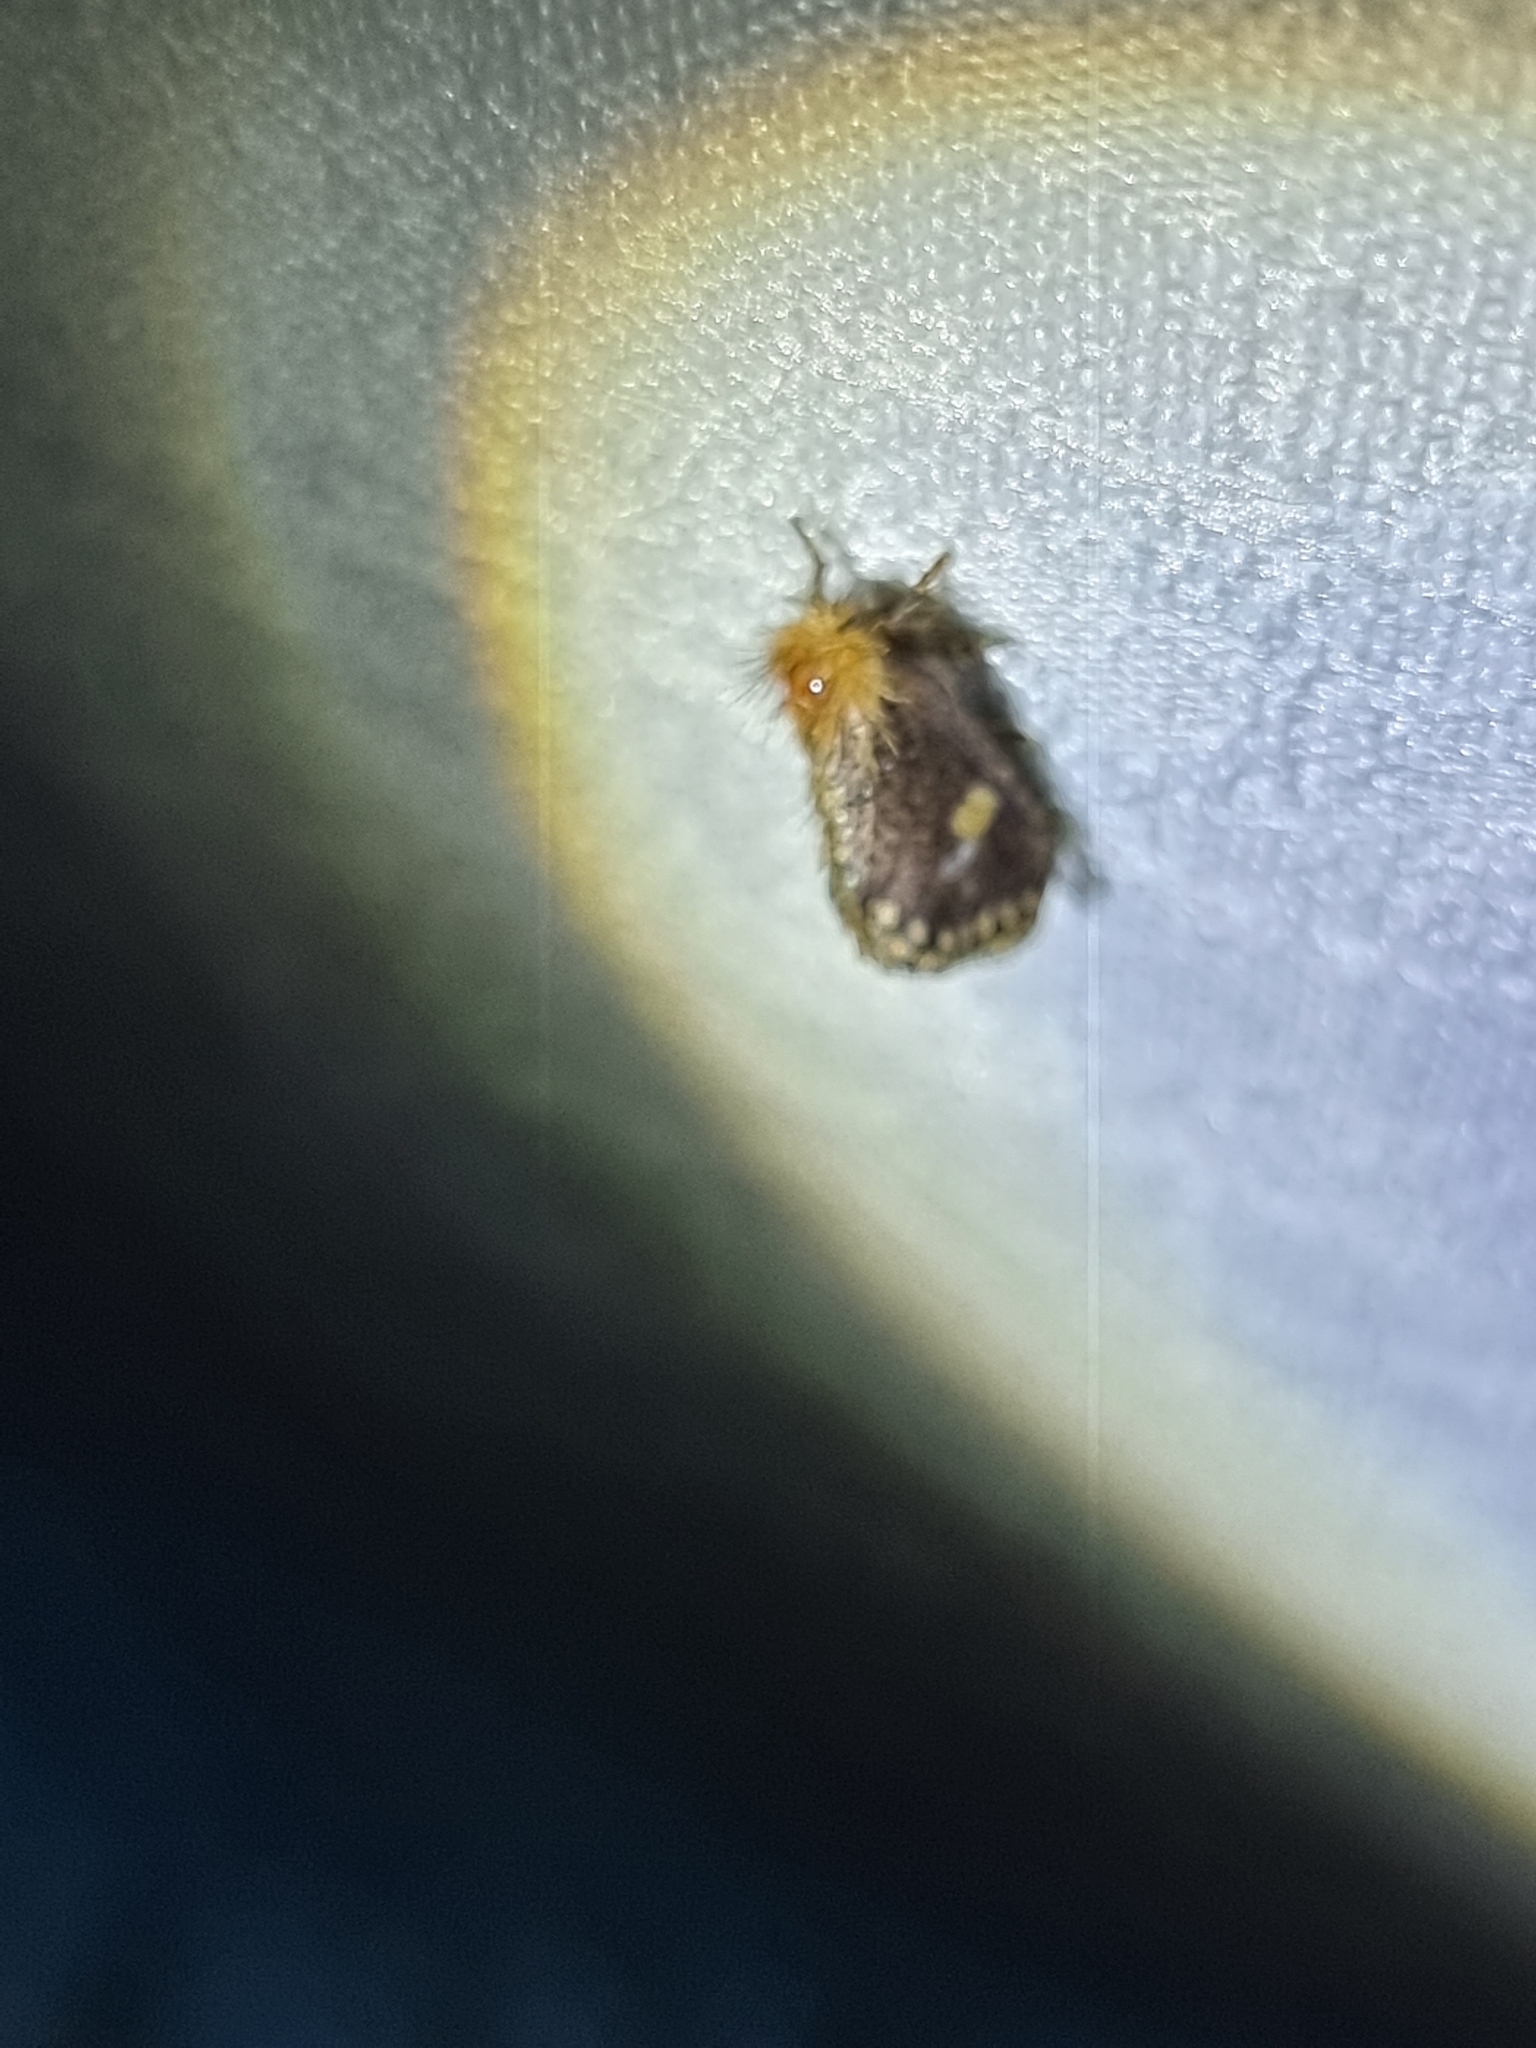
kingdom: Animalia
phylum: Arthropoda
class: Insecta
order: Lepidoptera
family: Notodontidae
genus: Epicoma
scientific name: Epicoma protrahens
